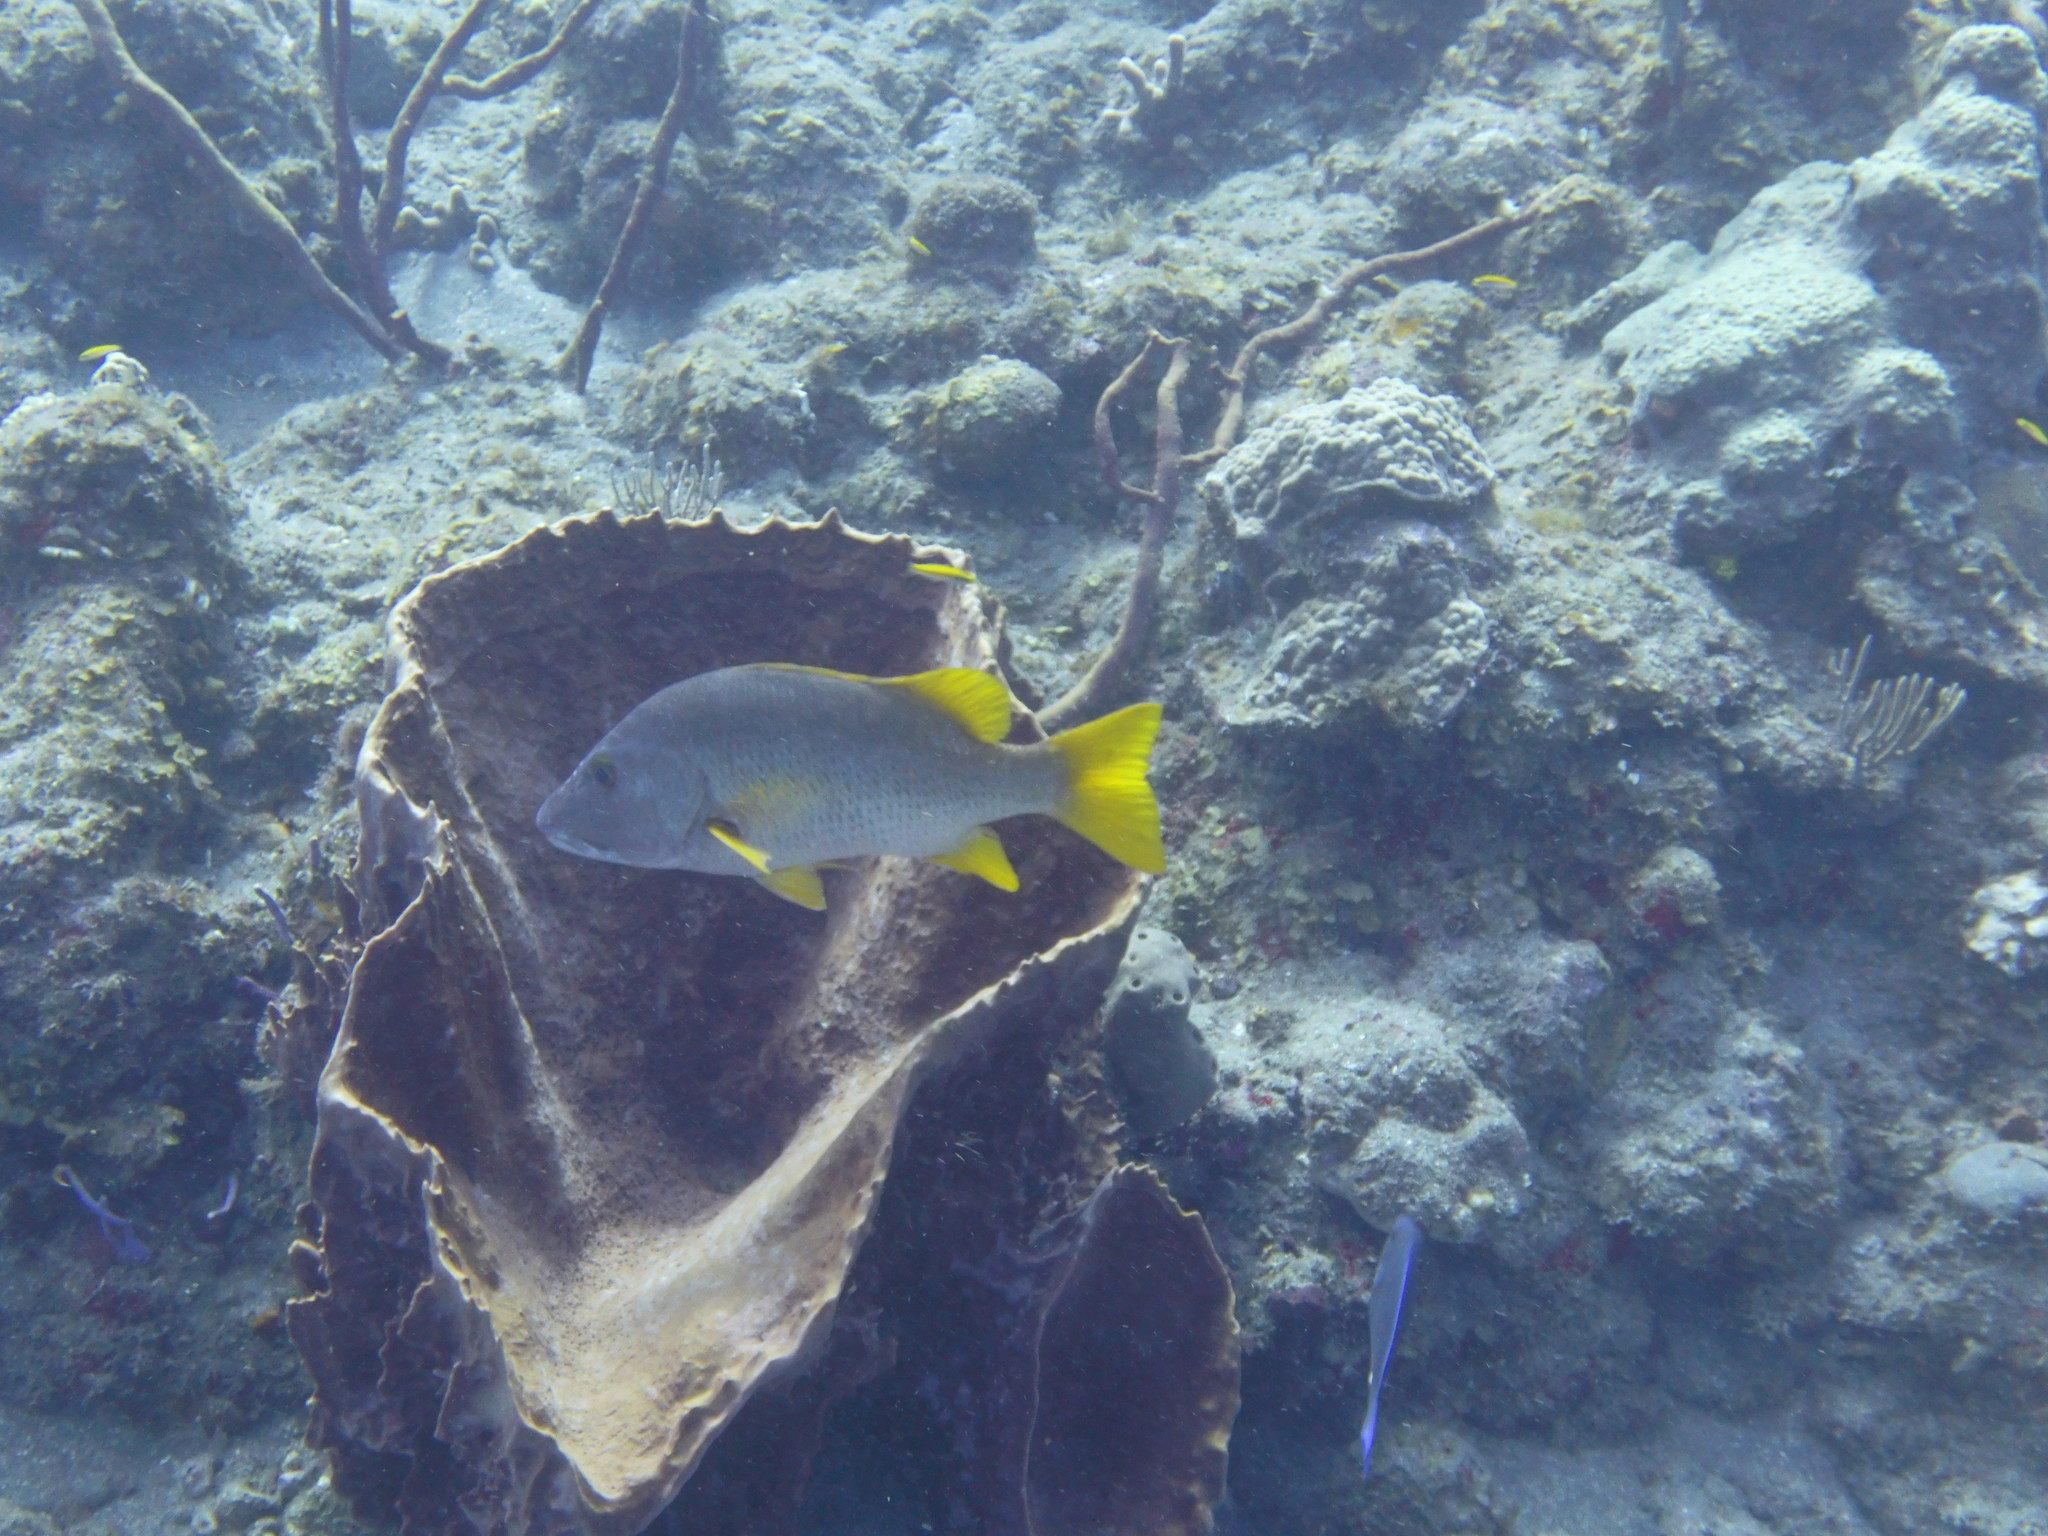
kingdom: Animalia
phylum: Chordata
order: Perciformes
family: Lutjanidae
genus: Lutjanus
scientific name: Lutjanus apodus
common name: Schoolmaster
